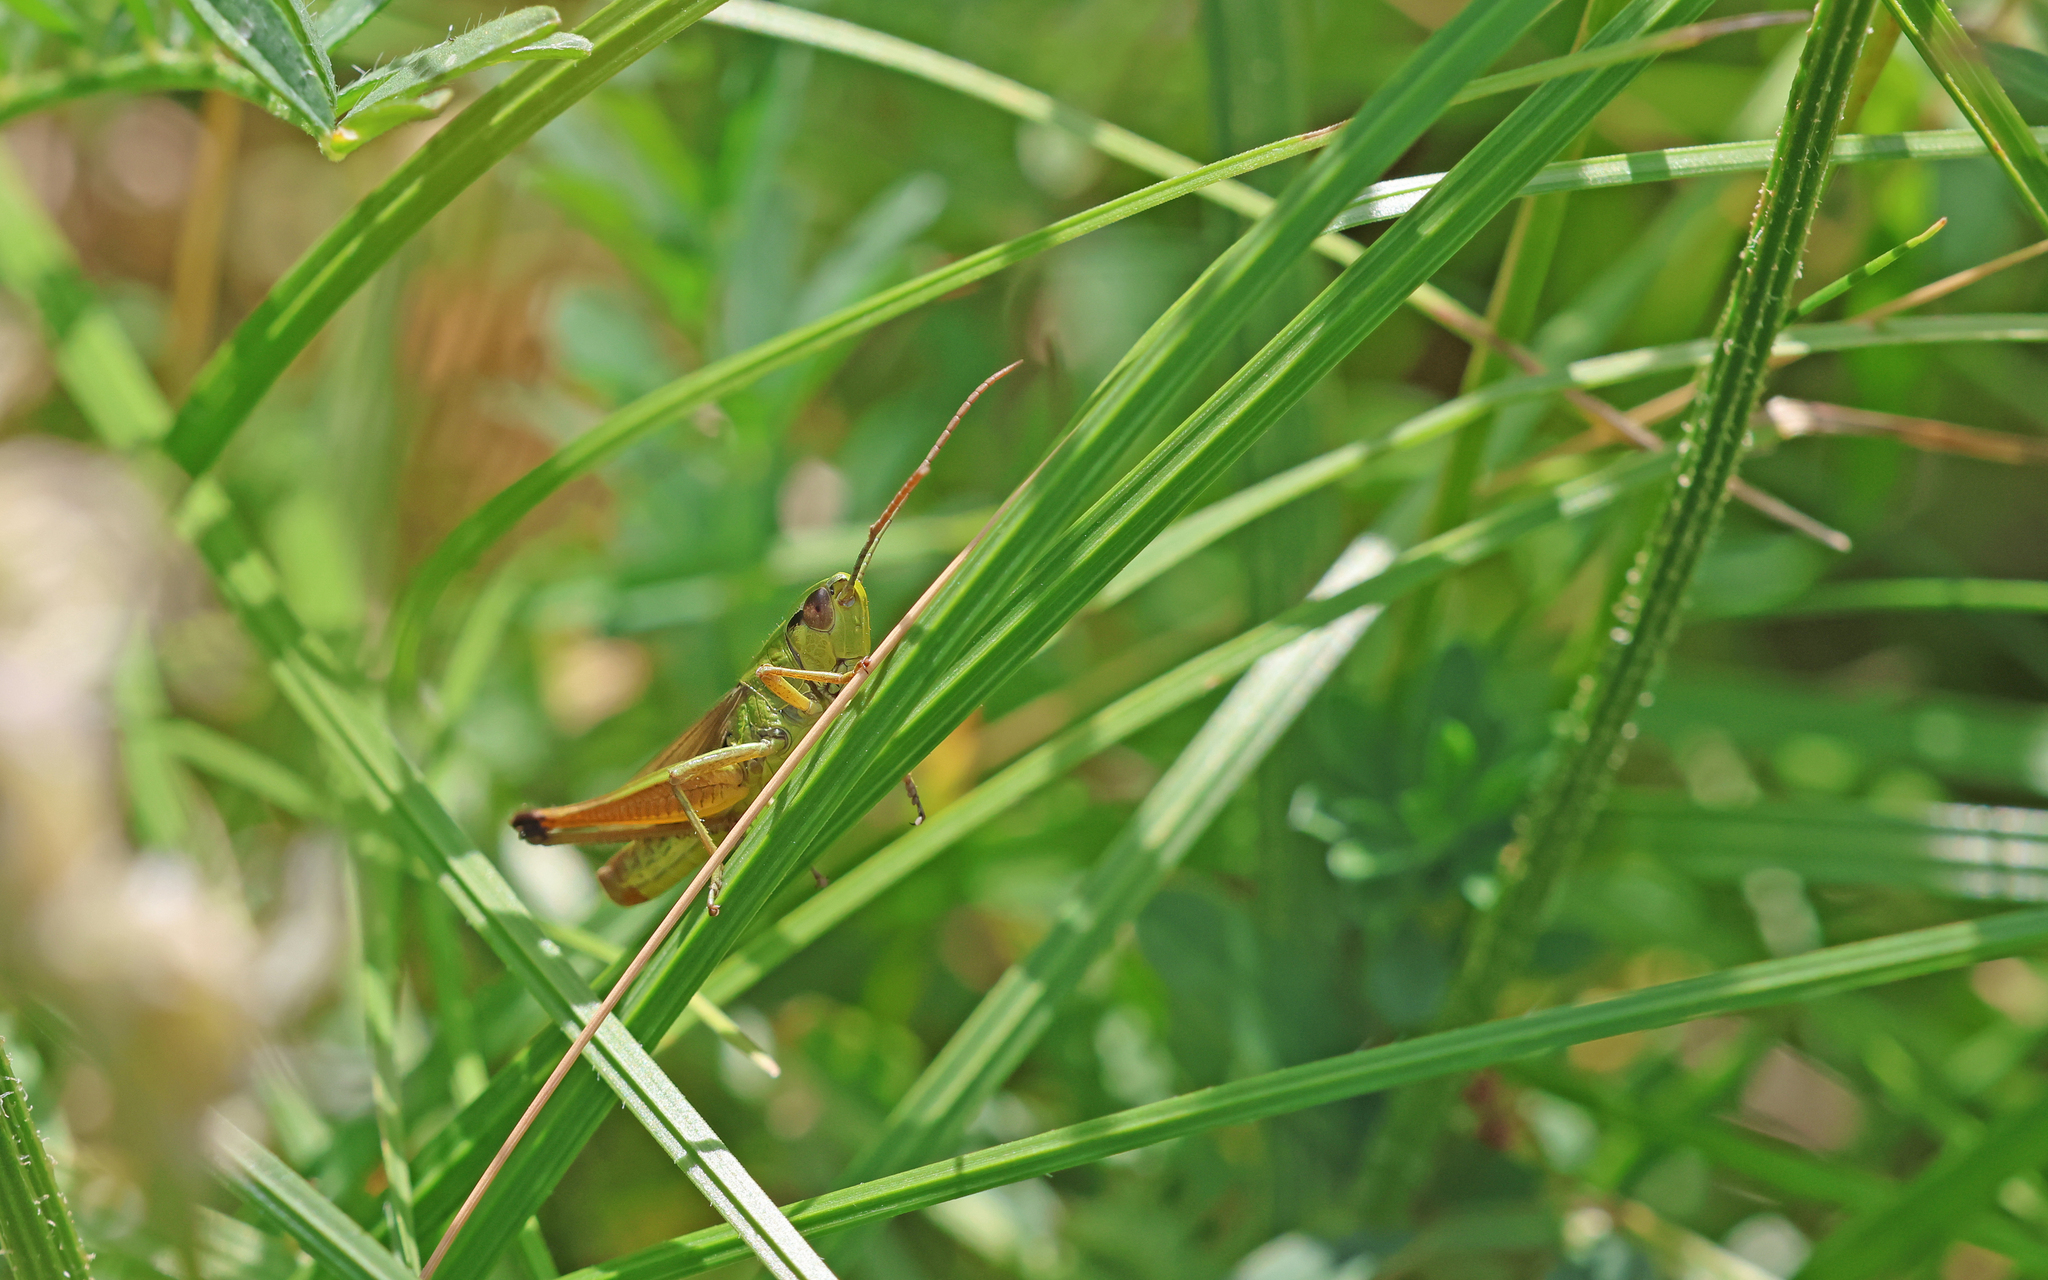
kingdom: Animalia
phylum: Arthropoda
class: Insecta
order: Orthoptera
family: Acrididae
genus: Pseudochorthippus
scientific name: Pseudochorthippus parallelus
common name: Meadow grasshopper
